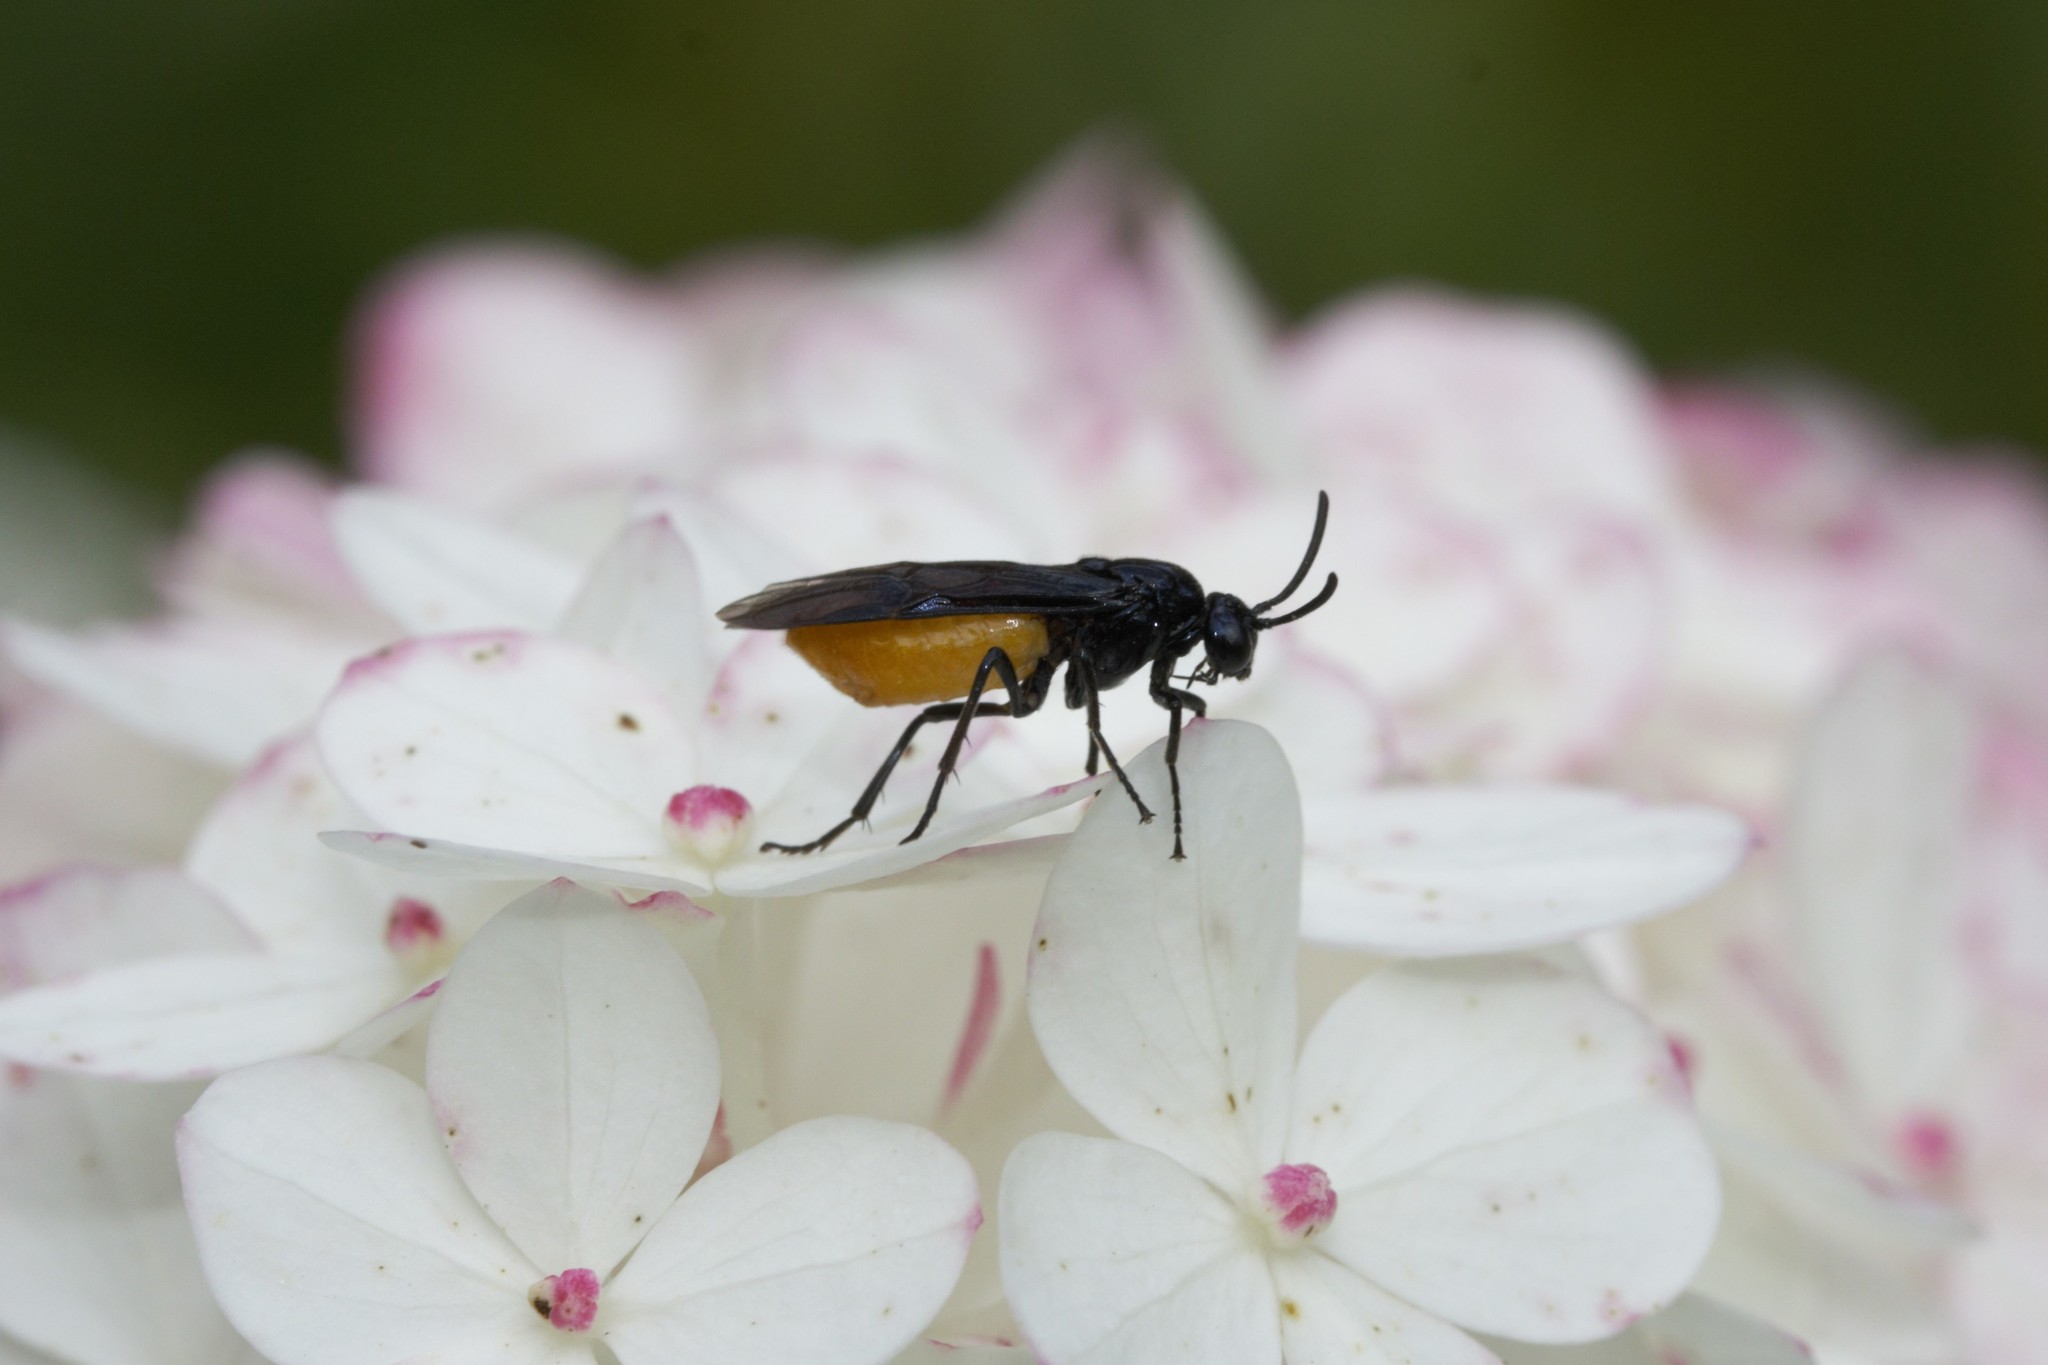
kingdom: Animalia
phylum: Arthropoda
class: Insecta
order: Hymenoptera
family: Argidae
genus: Arge
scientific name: Arge pagana
